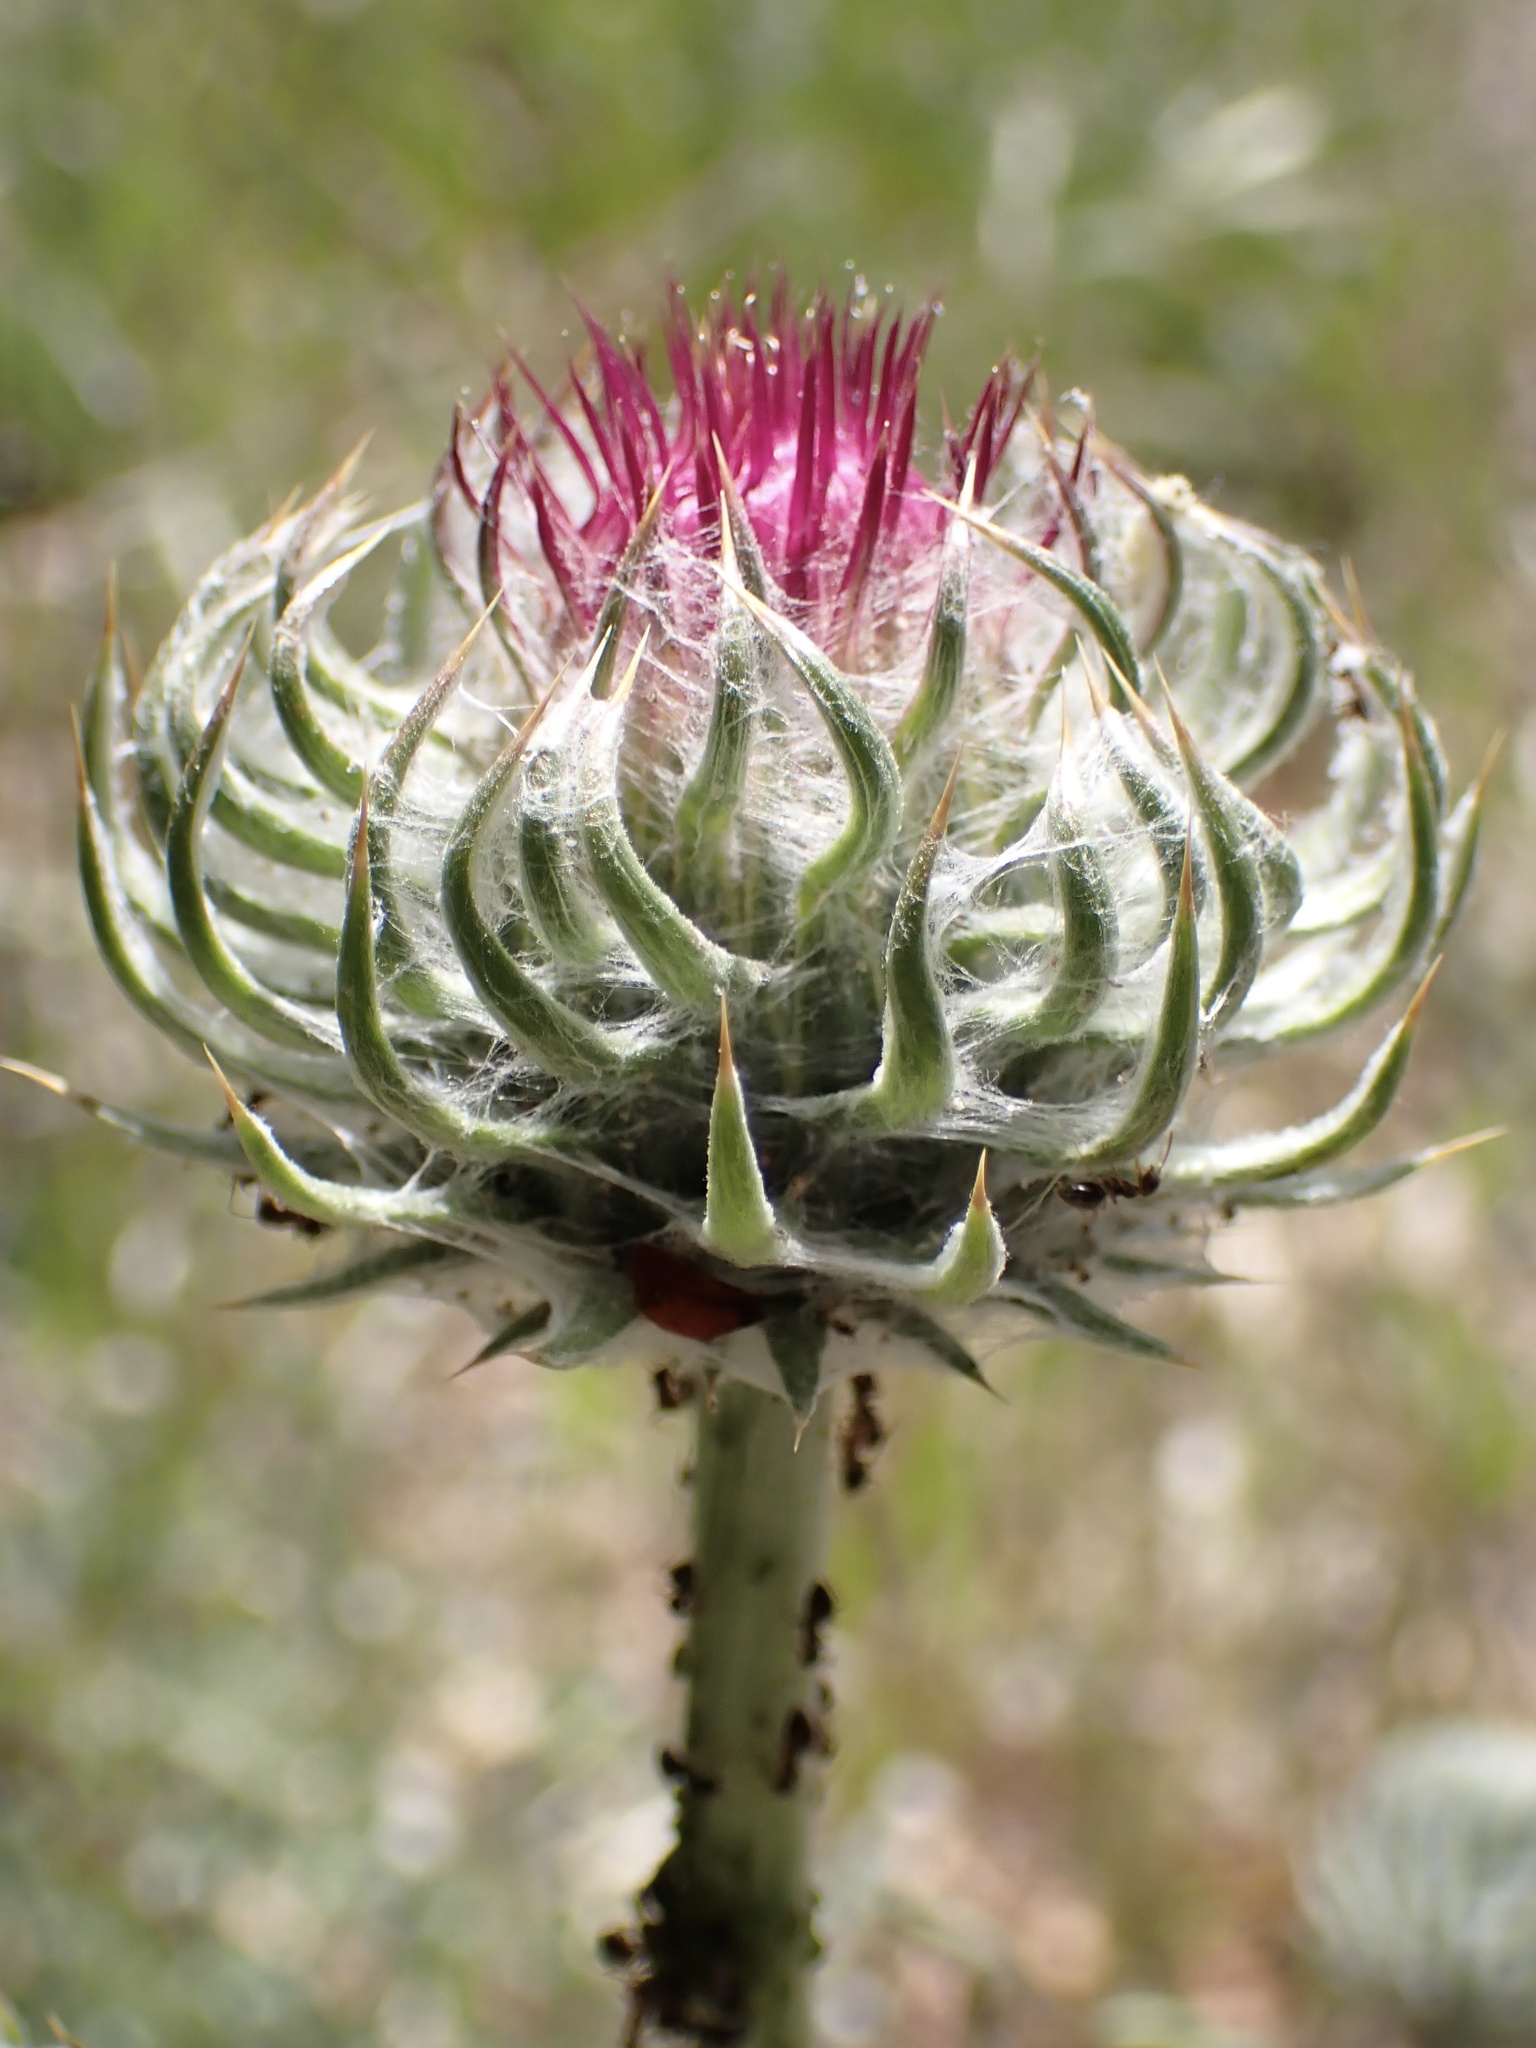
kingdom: Plantae
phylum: Tracheophyta
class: Magnoliopsida
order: Asterales
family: Asteraceae
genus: Cirsium
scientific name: Cirsium occidentale
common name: Western thistle
